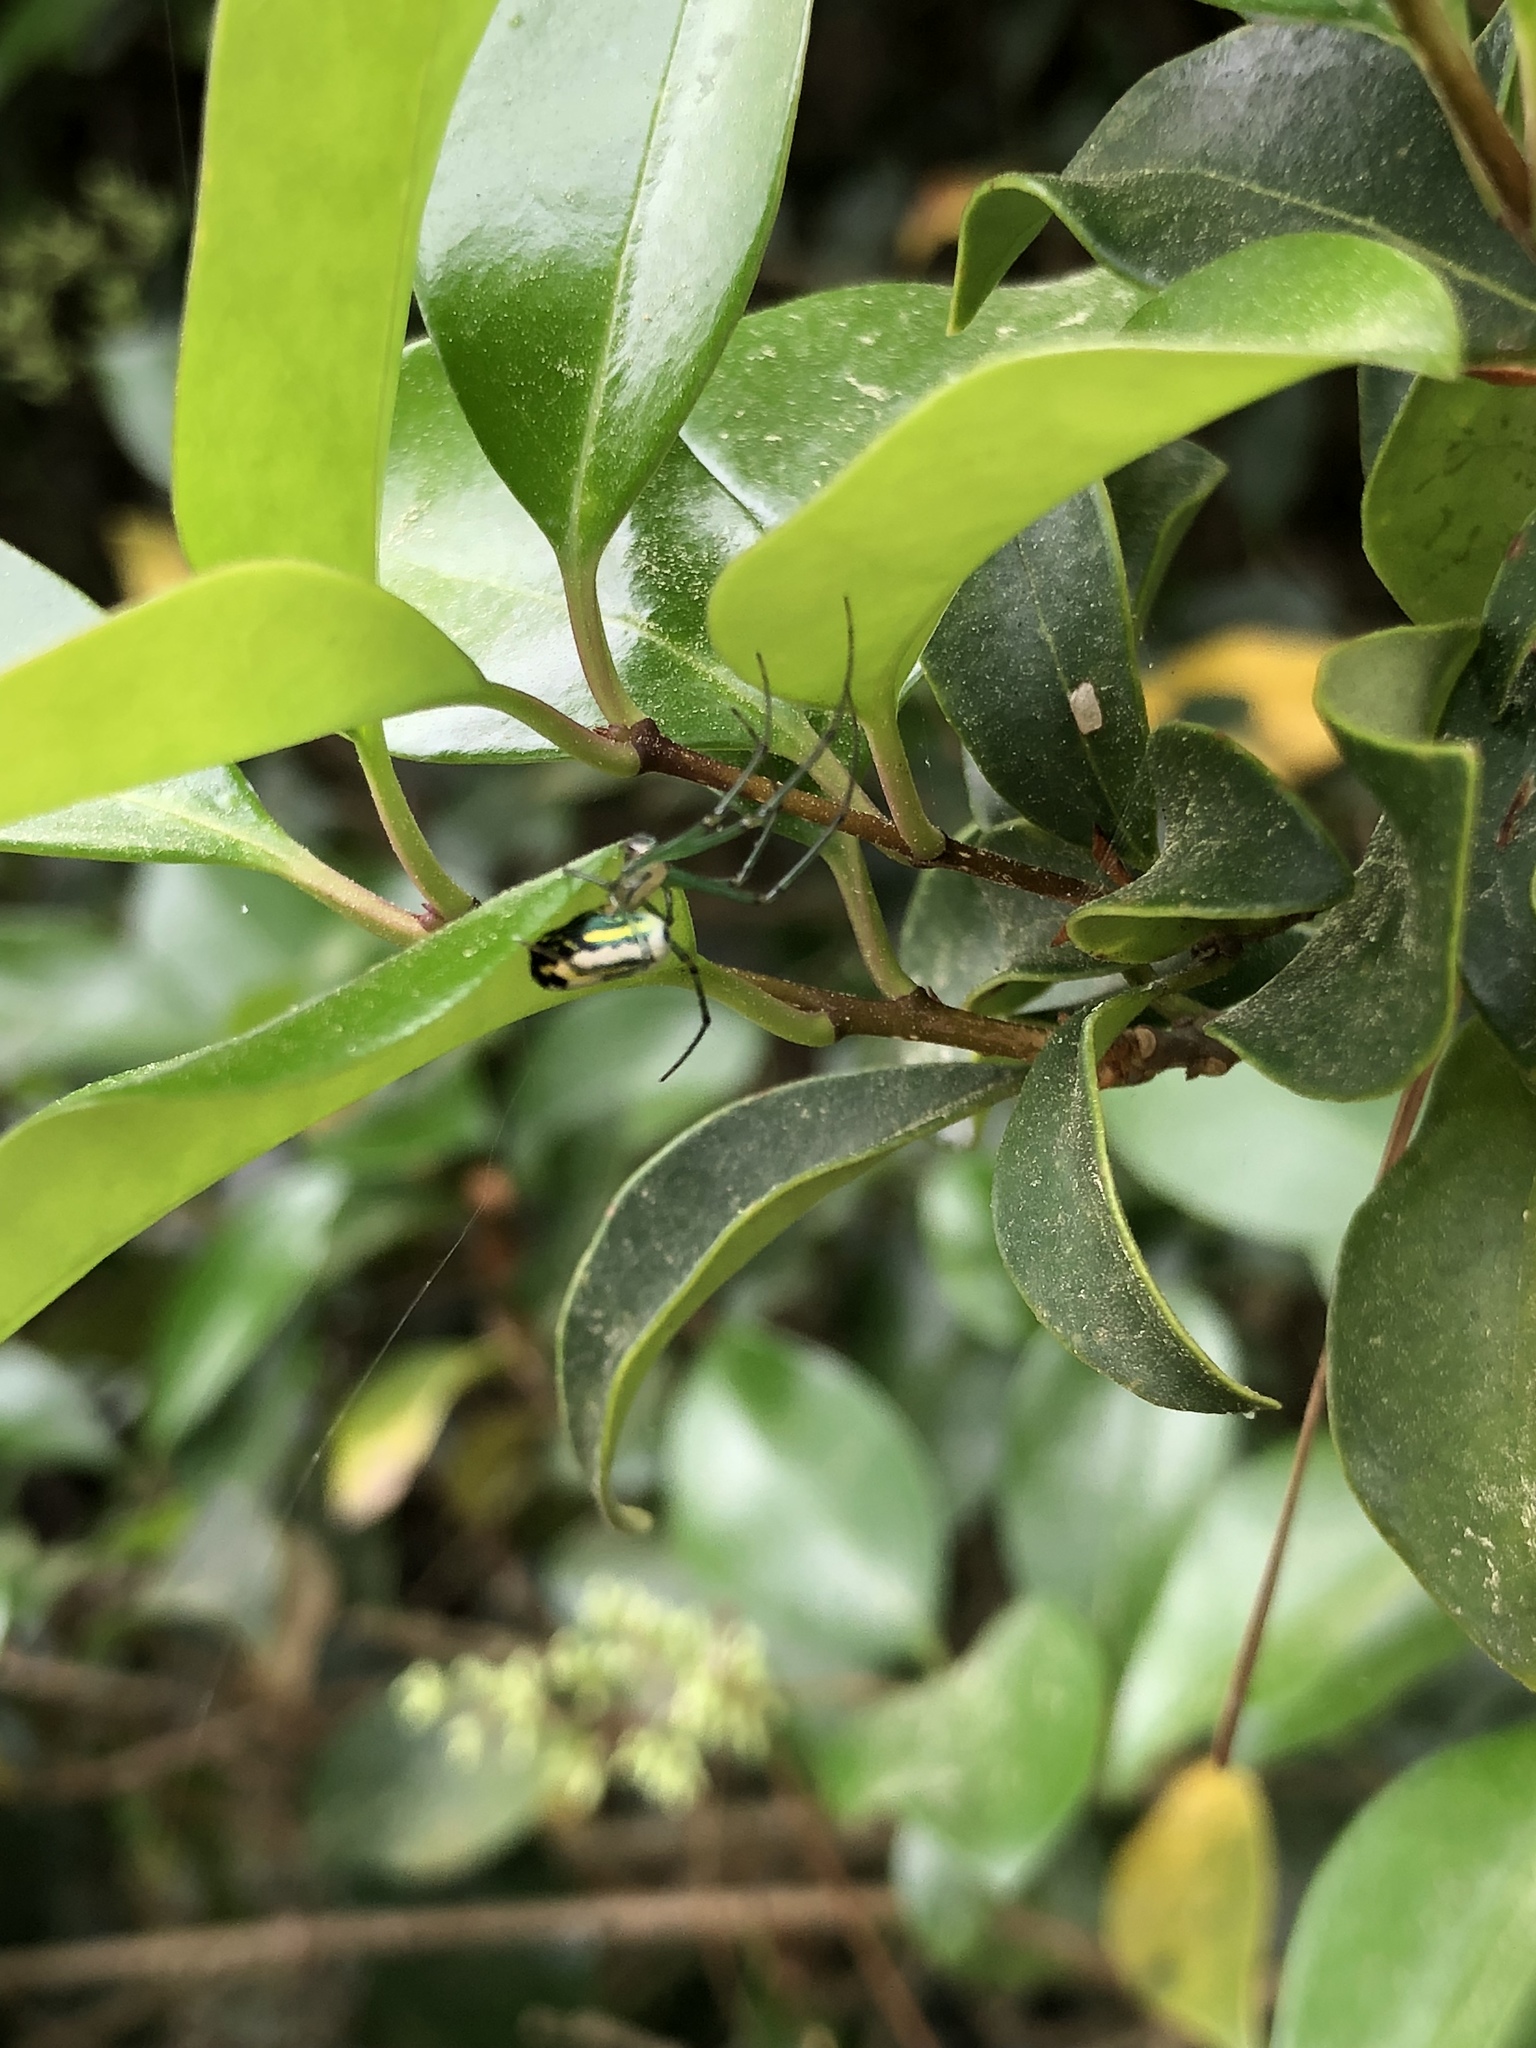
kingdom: Animalia
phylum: Arthropoda
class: Arachnida
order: Araneae
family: Tetragnathidae
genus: Leucauge
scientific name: Leucauge venusta
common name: Longjawed orb weavers
